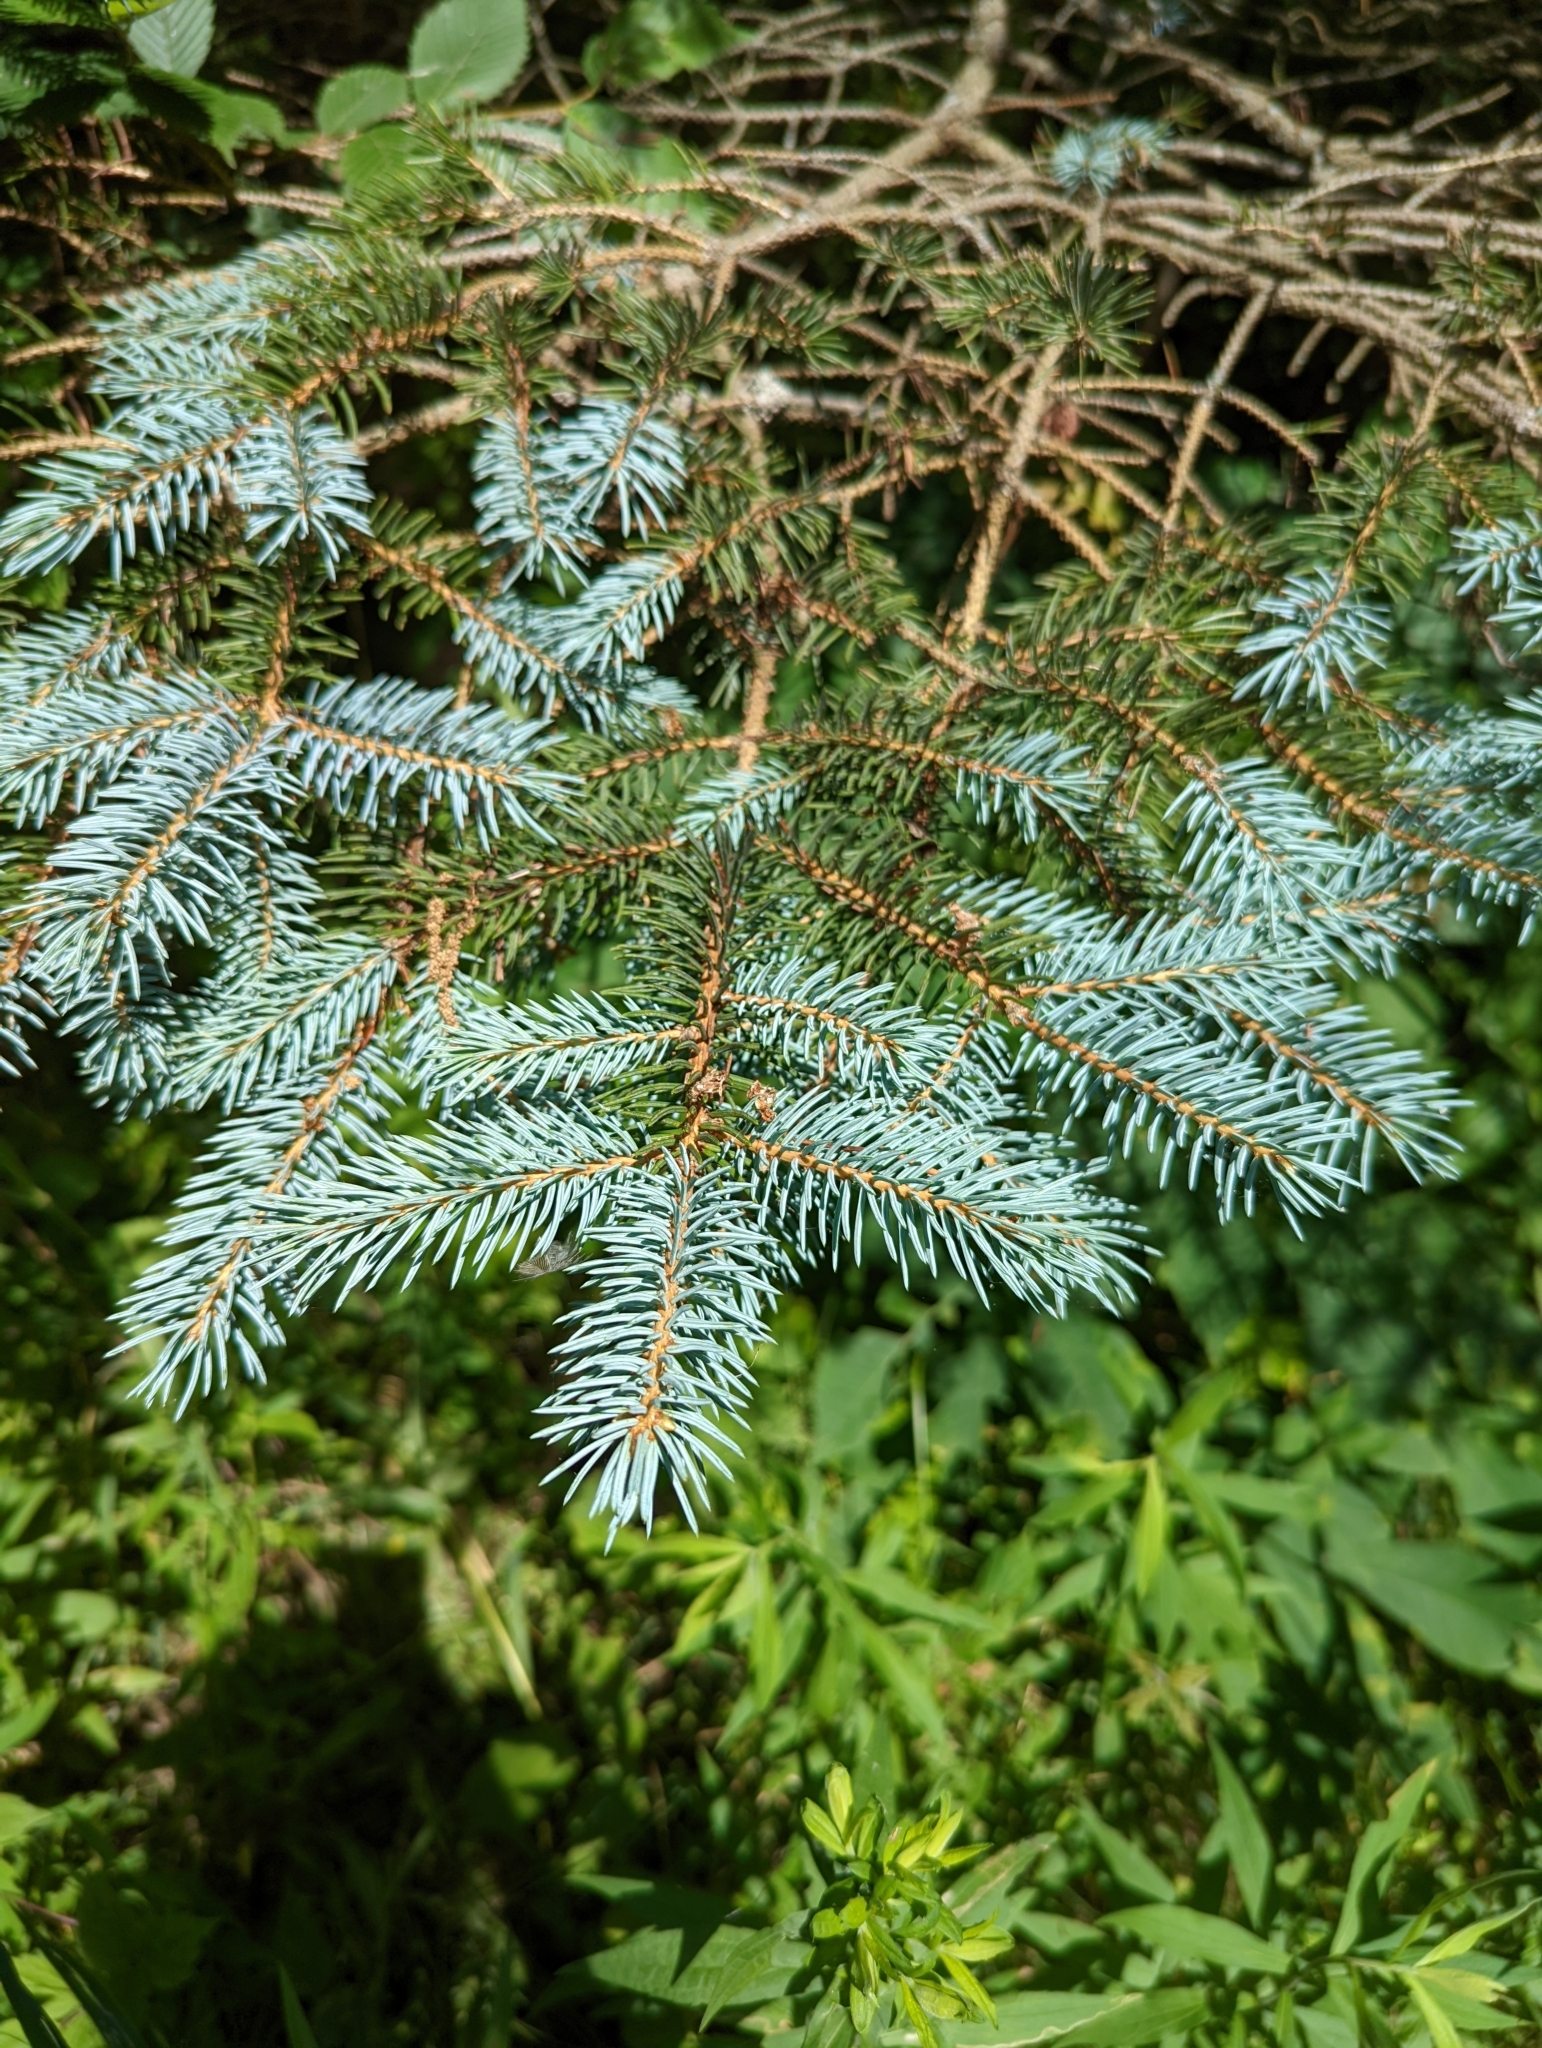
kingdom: Plantae
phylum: Tracheophyta
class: Pinopsida
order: Pinales
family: Pinaceae
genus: Picea
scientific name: Picea pungens
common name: Colorado spruce
